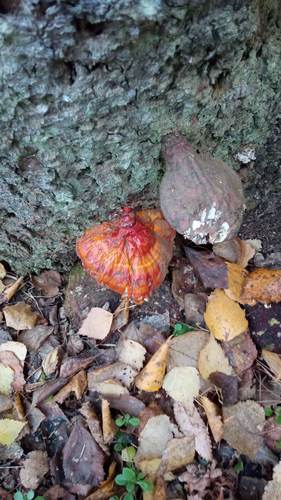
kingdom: Fungi
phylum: Basidiomycota
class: Agaricomycetes
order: Polyporales
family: Polyporaceae
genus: Ganoderma
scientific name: Ganoderma lucidum
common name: Lacquered bracket
